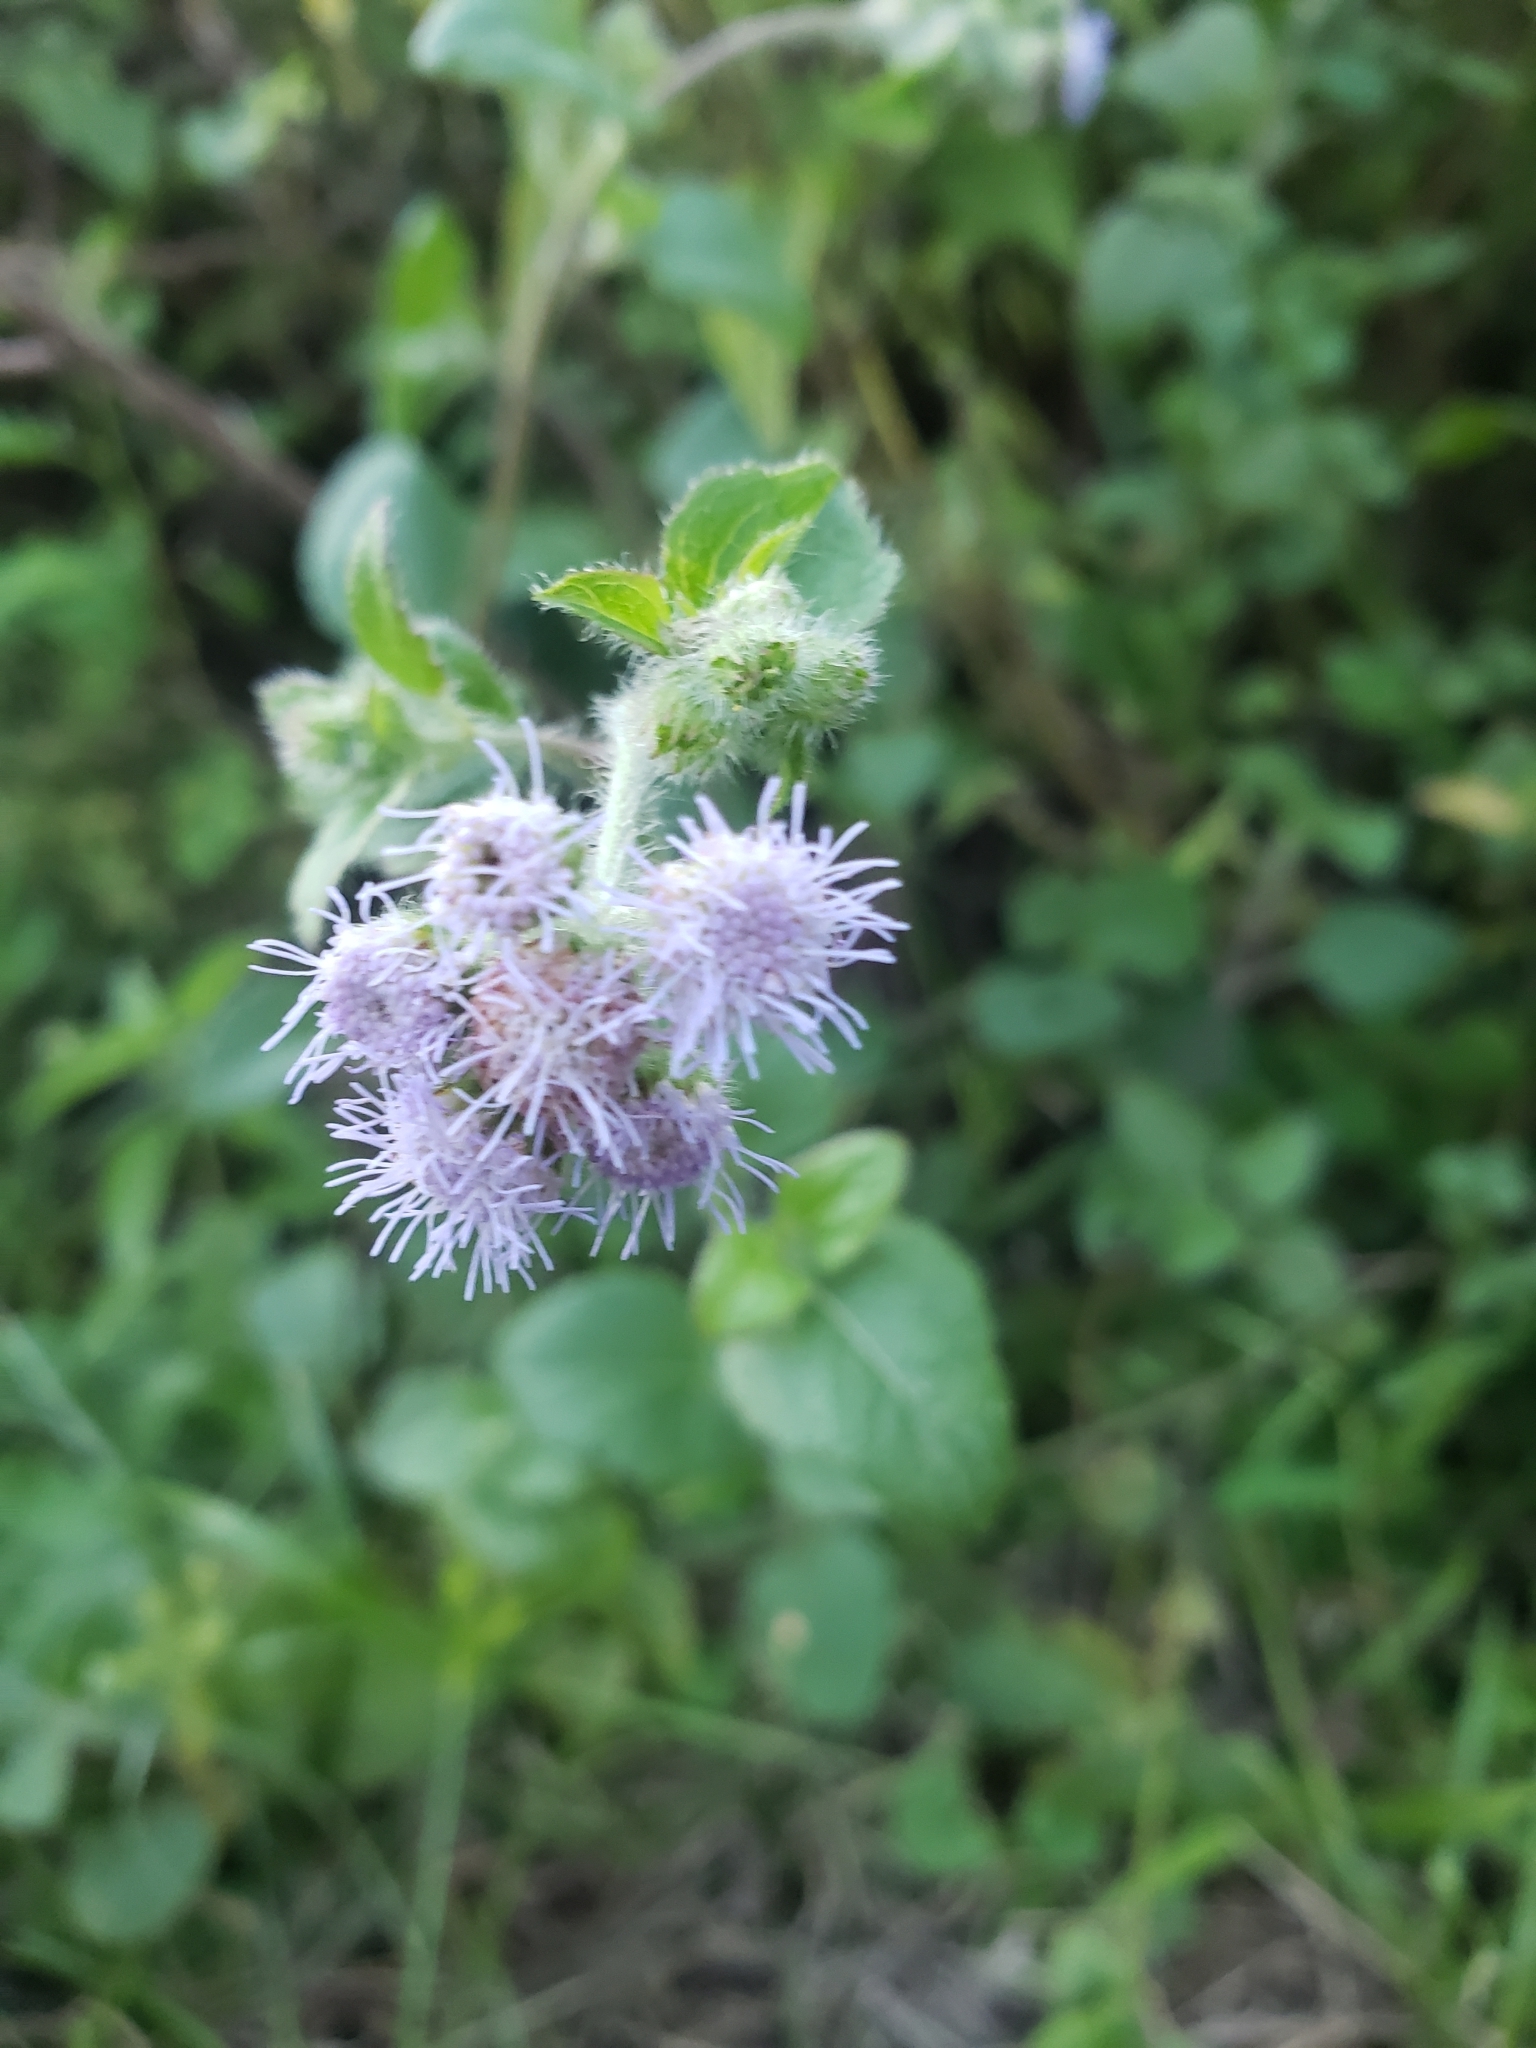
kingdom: Plantae
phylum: Tracheophyta
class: Magnoliopsida
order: Asterales
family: Asteraceae
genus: Ageratum
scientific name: Ageratum houstonianum
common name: Bluemink
